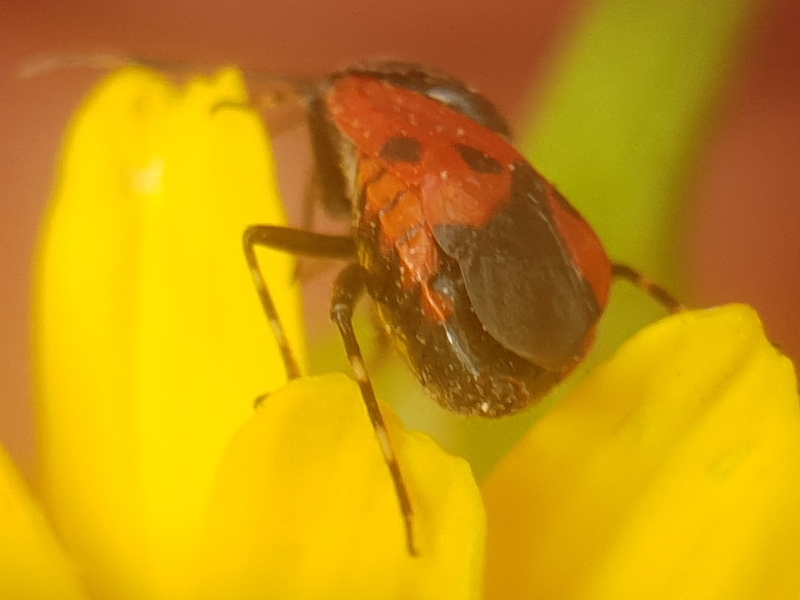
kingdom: Animalia
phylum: Arthropoda
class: Insecta
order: Hemiptera
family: Miridae
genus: Deraeocoris
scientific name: Deraeocoris rutilus
